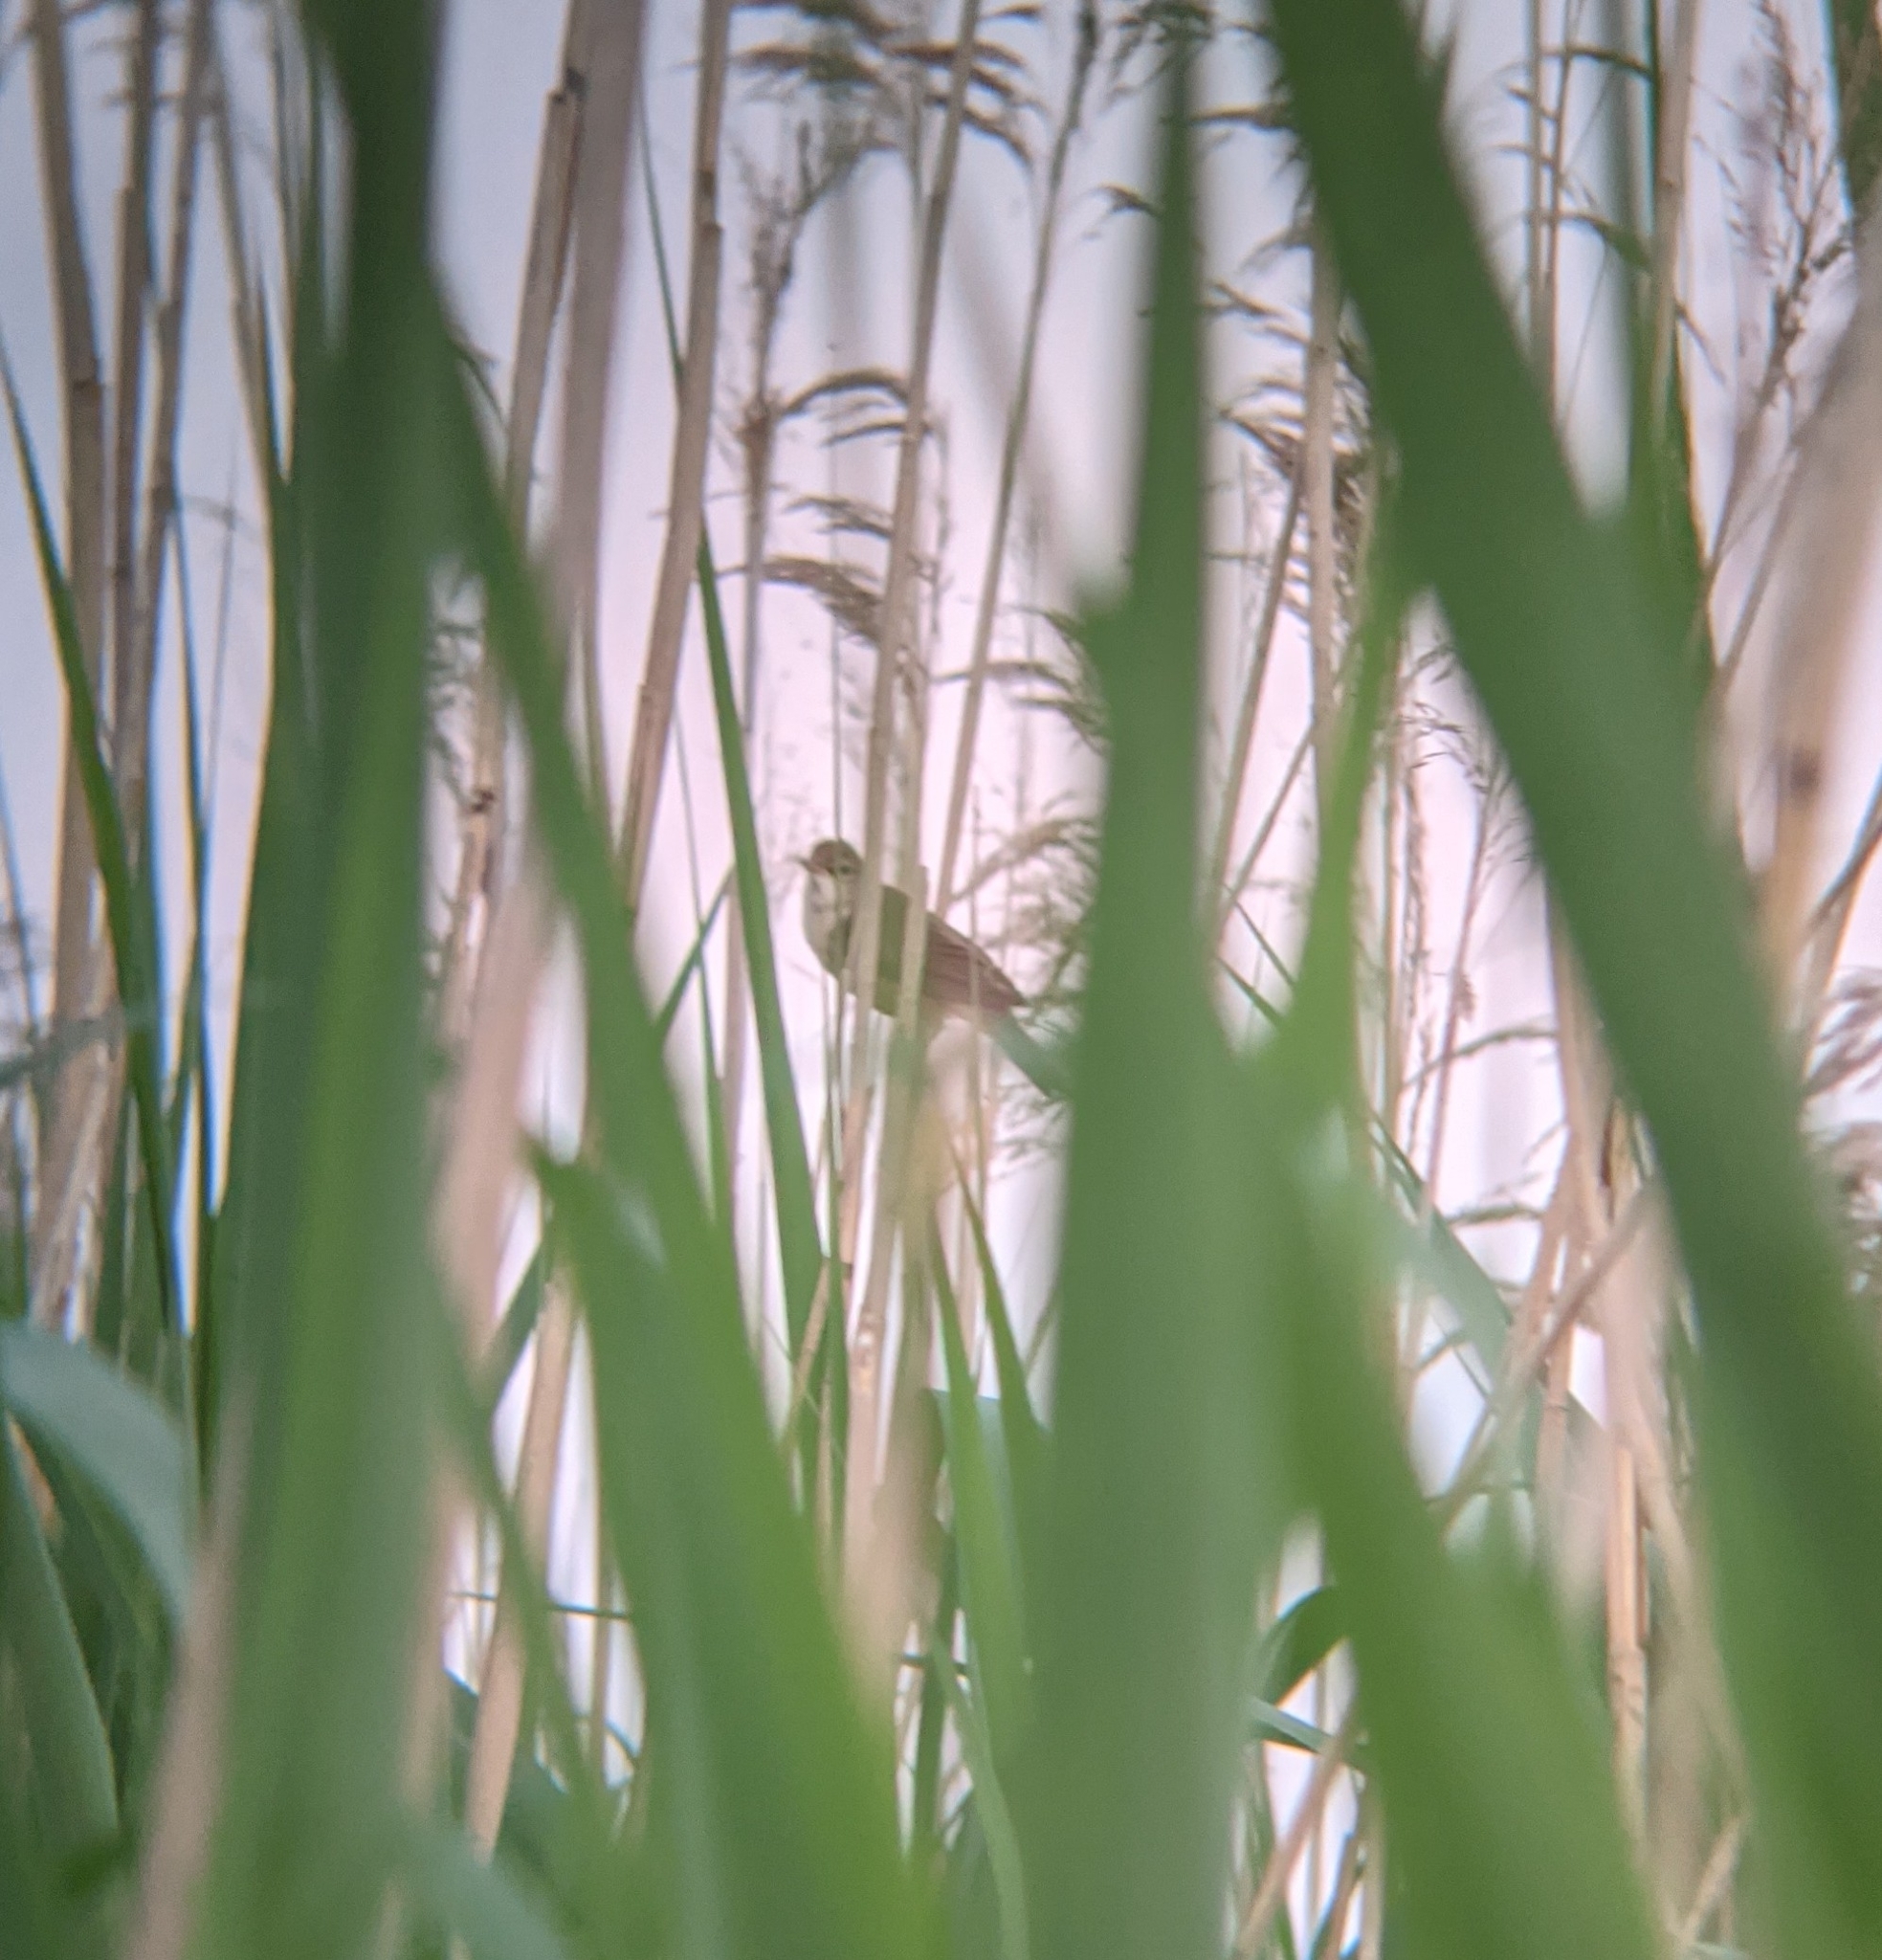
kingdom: Animalia
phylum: Chordata
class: Aves
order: Passeriformes
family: Acrocephalidae
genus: Acrocephalus
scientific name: Acrocephalus scirpaceus
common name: Eurasian reed warbler
